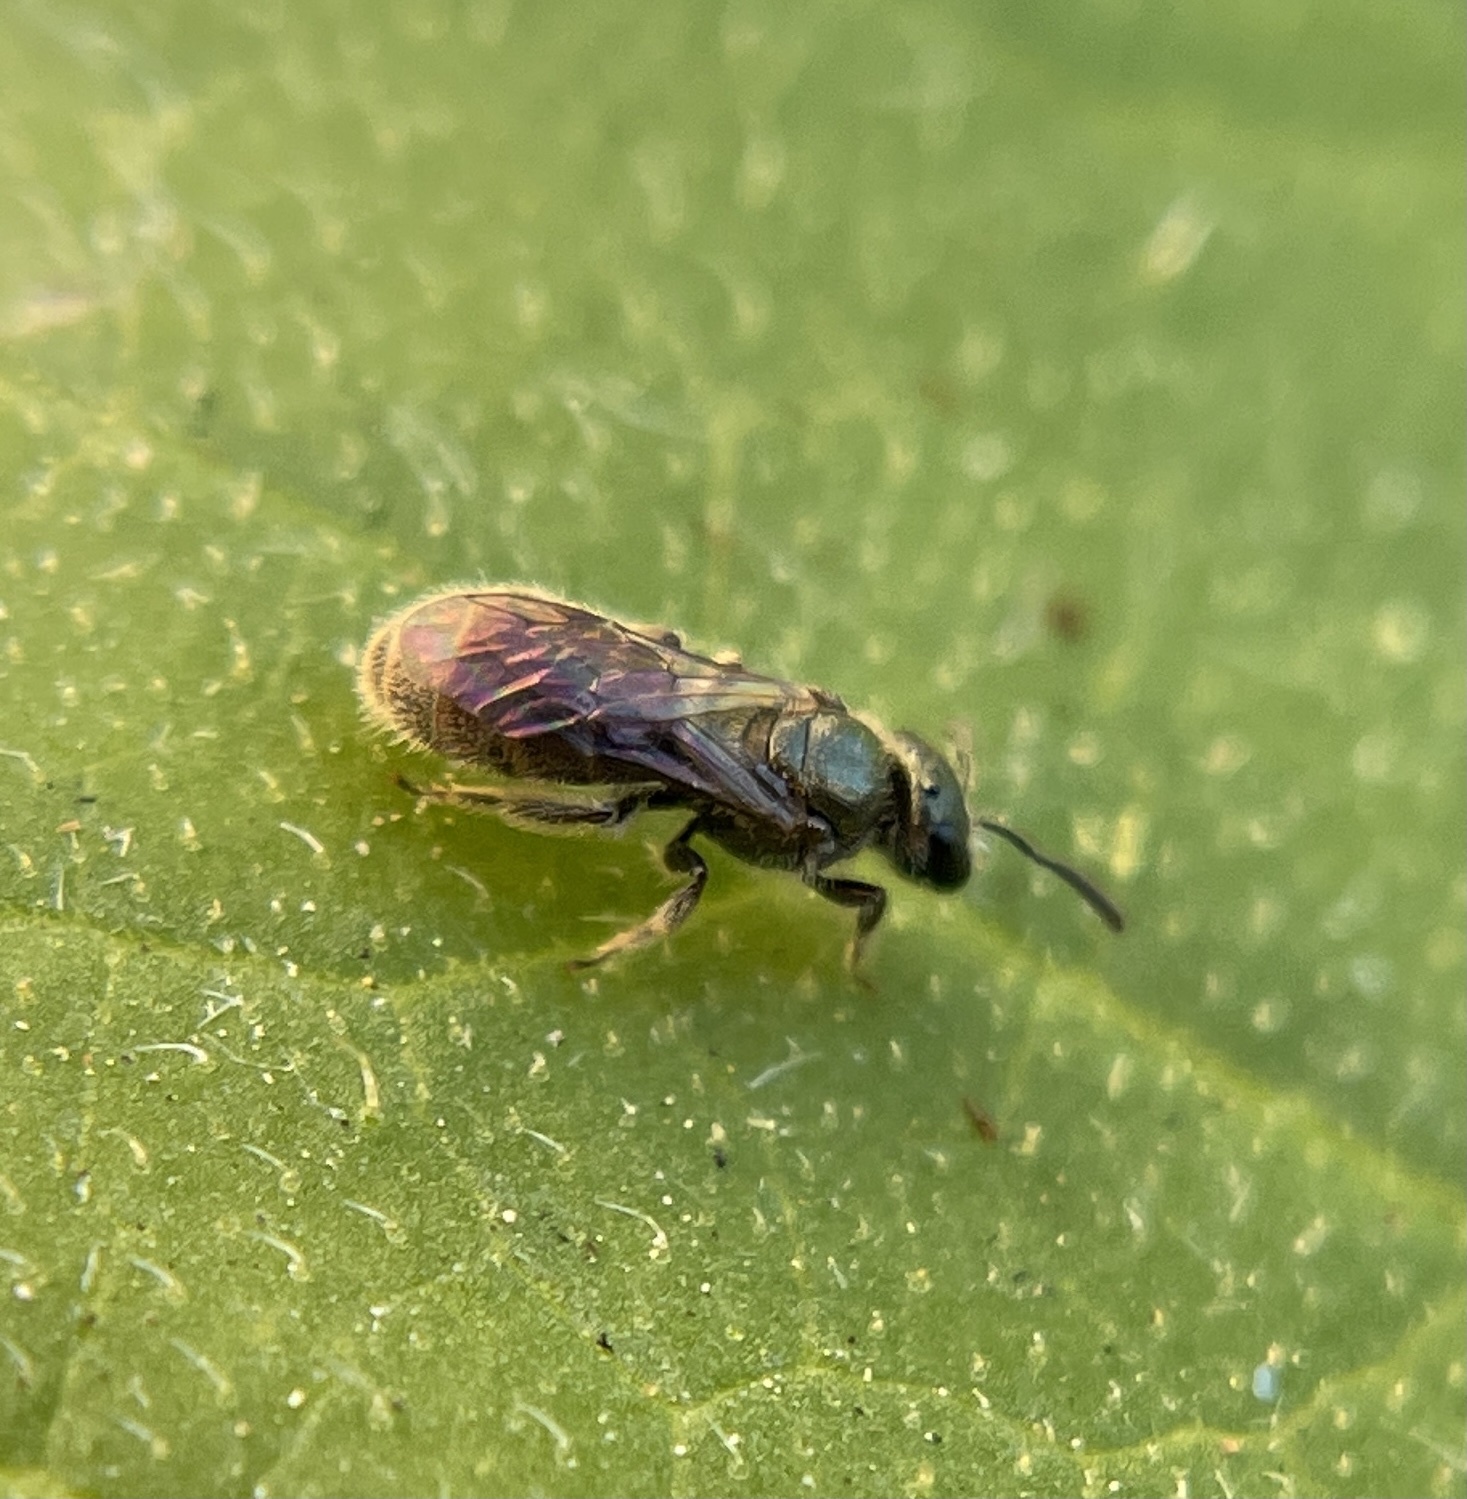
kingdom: Animalia
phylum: Arthropoda
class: Insecta
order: Hymenoptera
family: Halictidae
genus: Dialictus
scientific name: Dialictus
